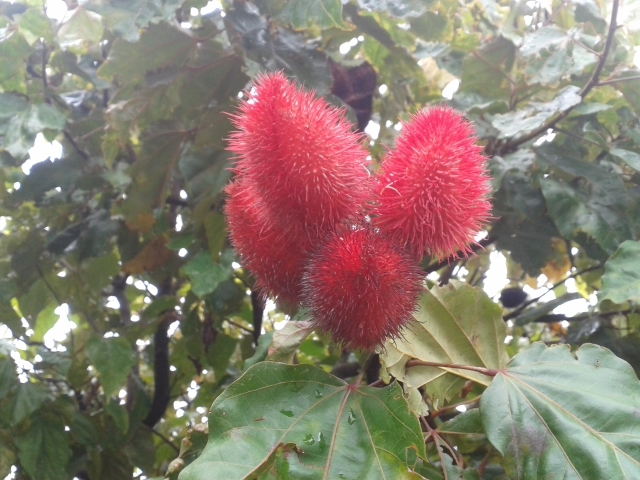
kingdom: Plantae
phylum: Tracheophyta
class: Magnoliopsida
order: Malvales
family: Bixaceae
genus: Bixa
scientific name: Bixa orellana
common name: Lipsticktree
